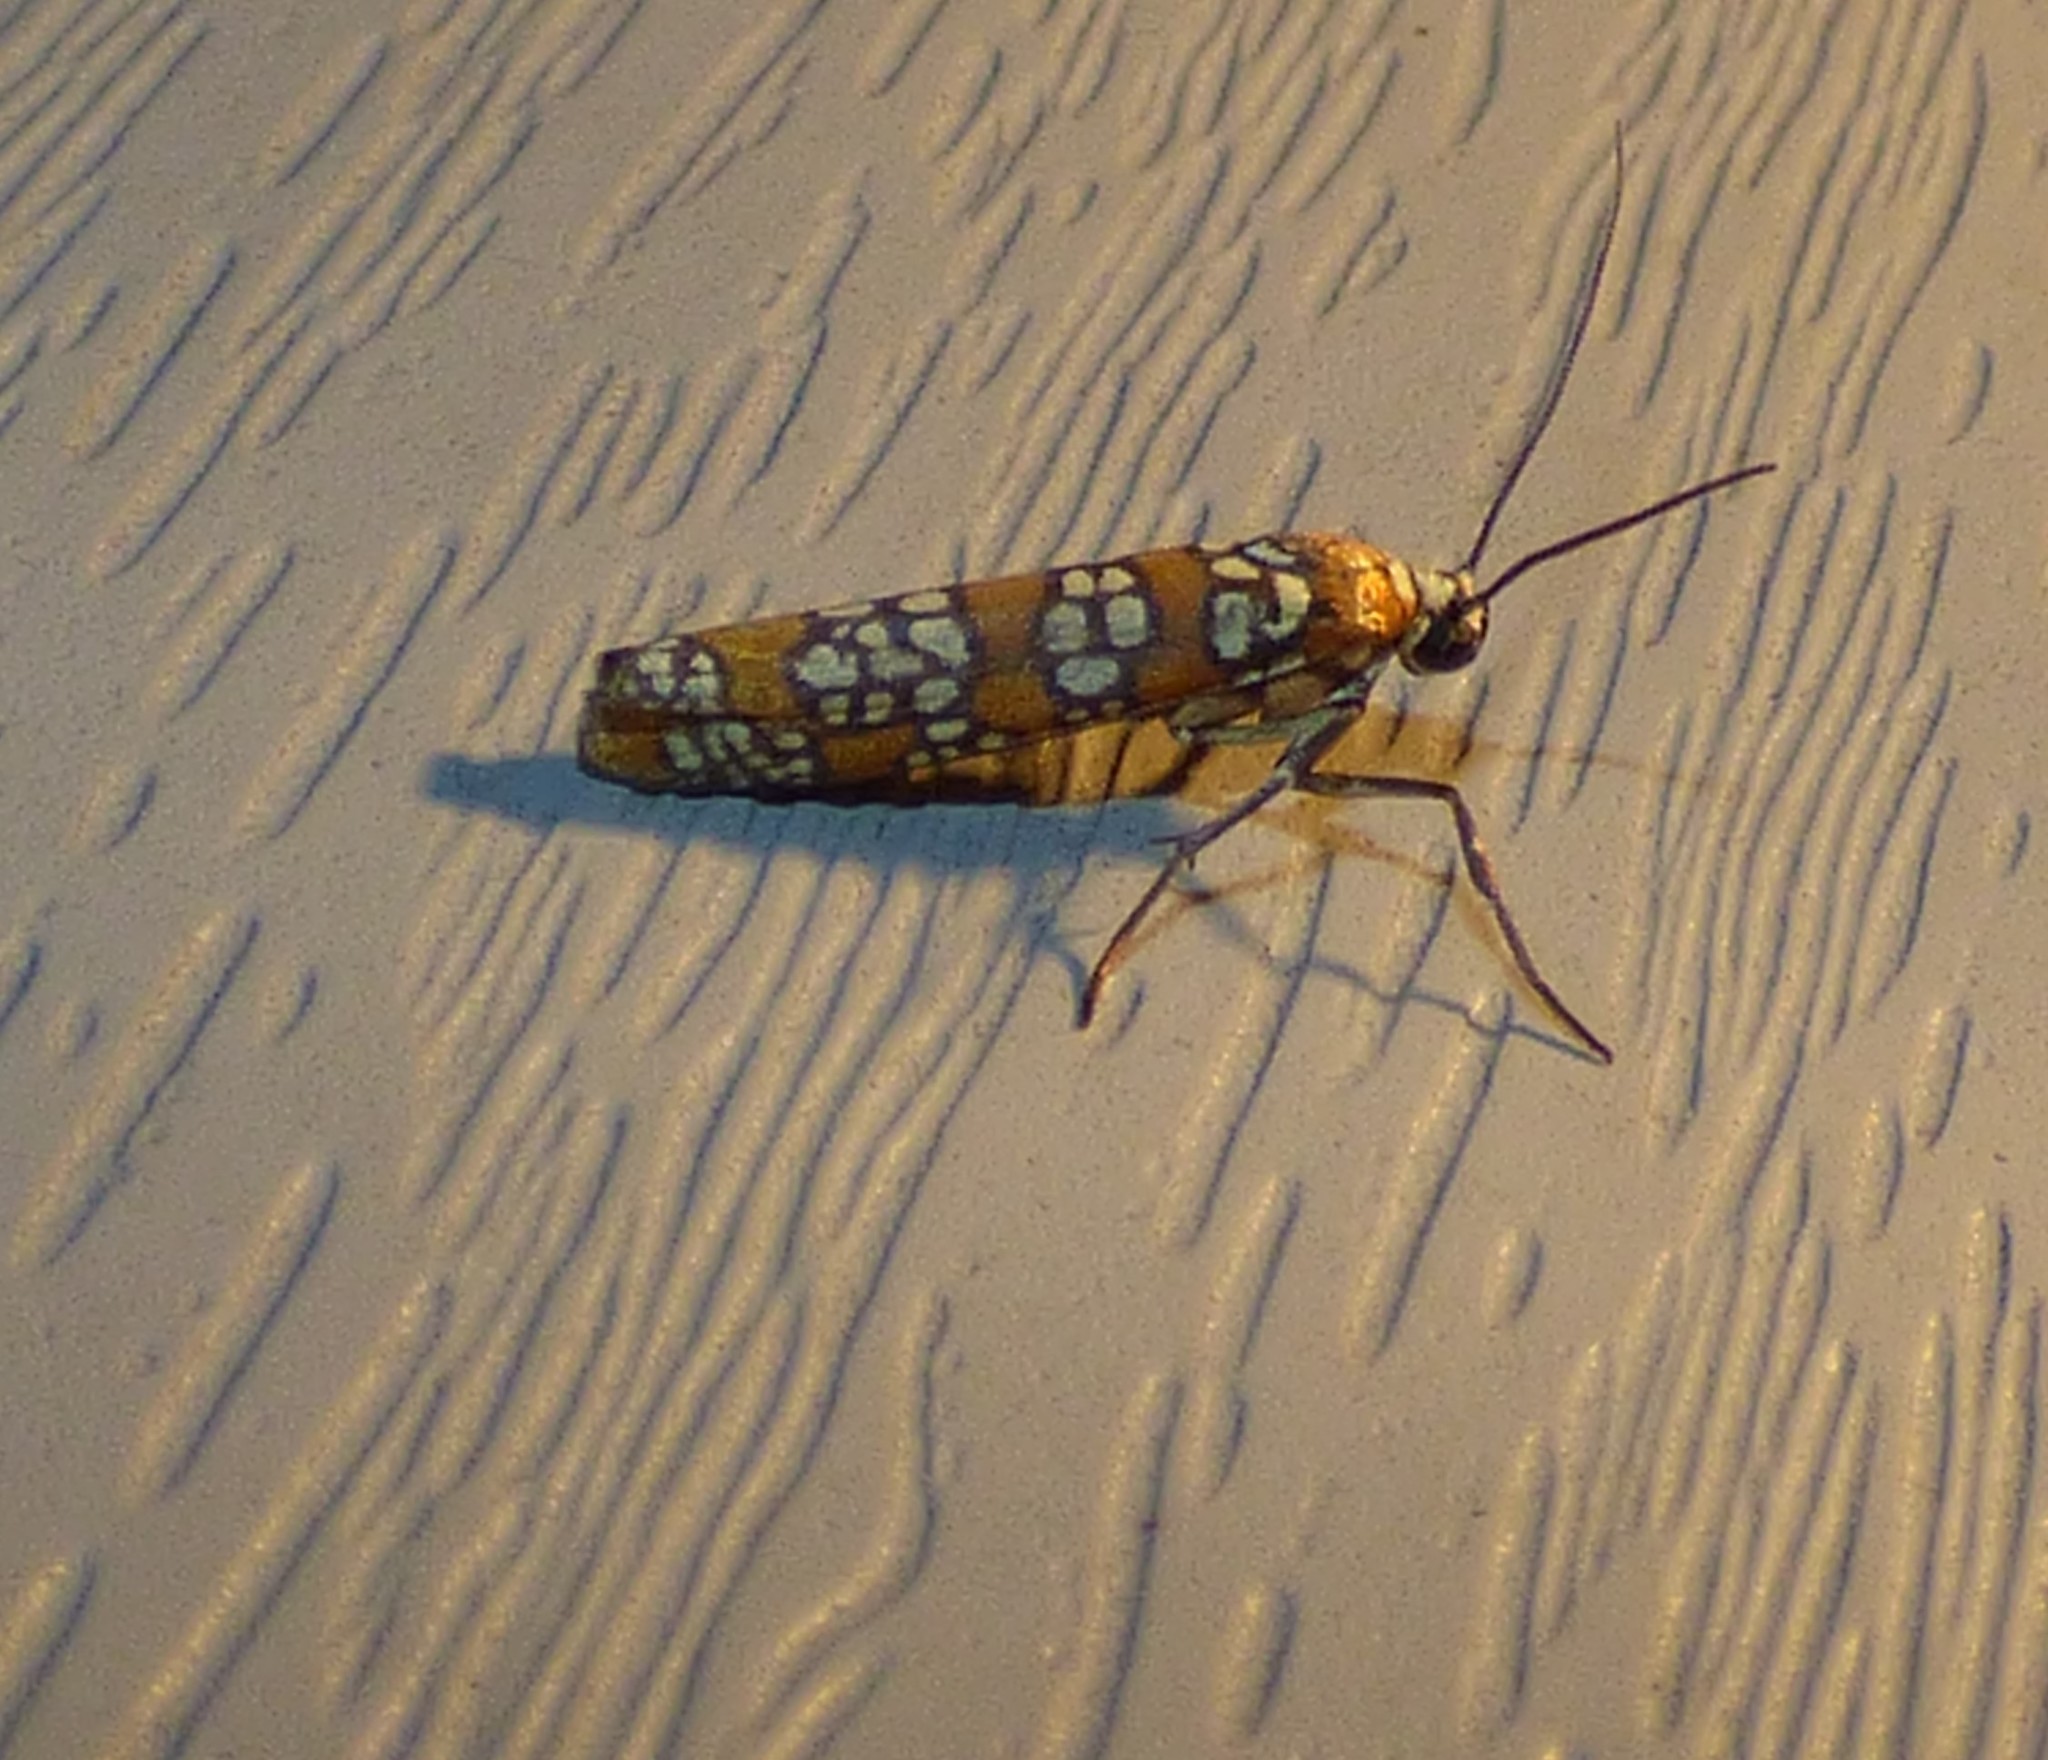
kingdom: Animalia
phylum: Arthropoda
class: Insecta
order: Lepidoptera
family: Attevidae
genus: Atteva
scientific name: Atteva punctella
